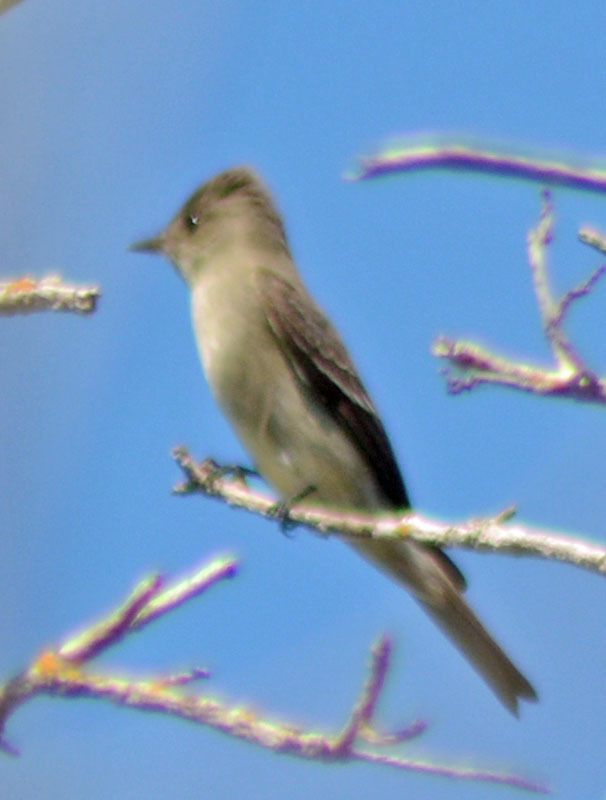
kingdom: Animalia
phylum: Chordata
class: Aves
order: Passeriformes
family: Tyrannidae
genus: Contopus
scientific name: Contopus sordidulus
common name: Western wood-pewee
